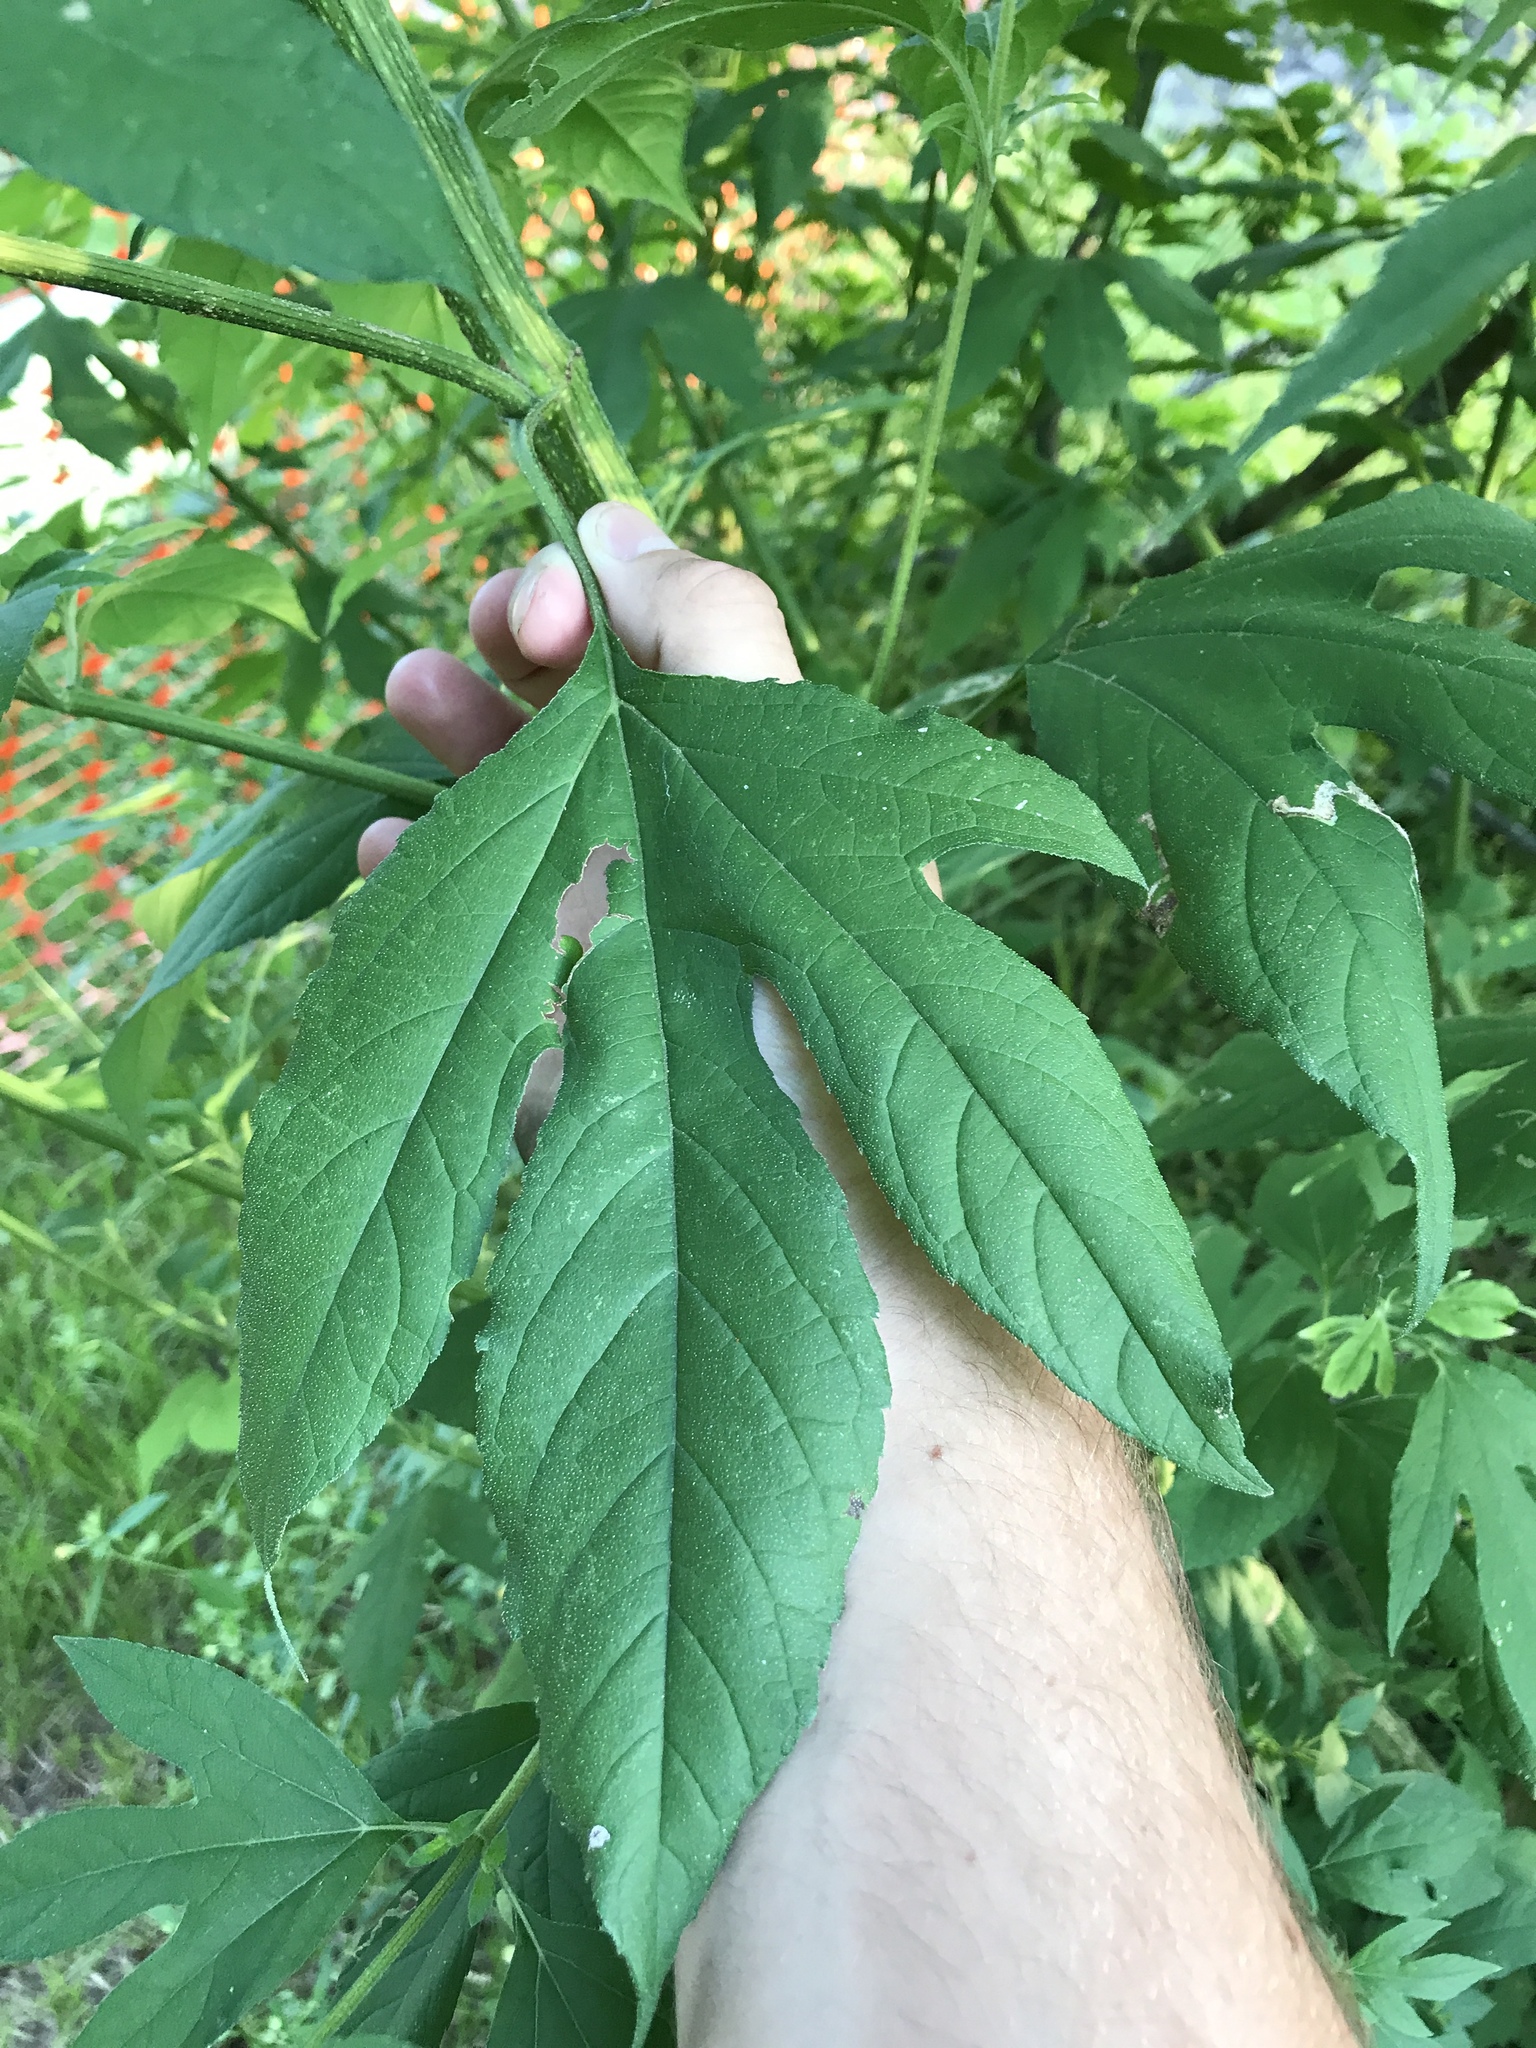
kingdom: Plantae
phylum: Tracheophyta
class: Magnoliopsida
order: Asterales
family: Asteraceae
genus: Ambrosia
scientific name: Ambrosia trifida
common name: Giant ragweed
